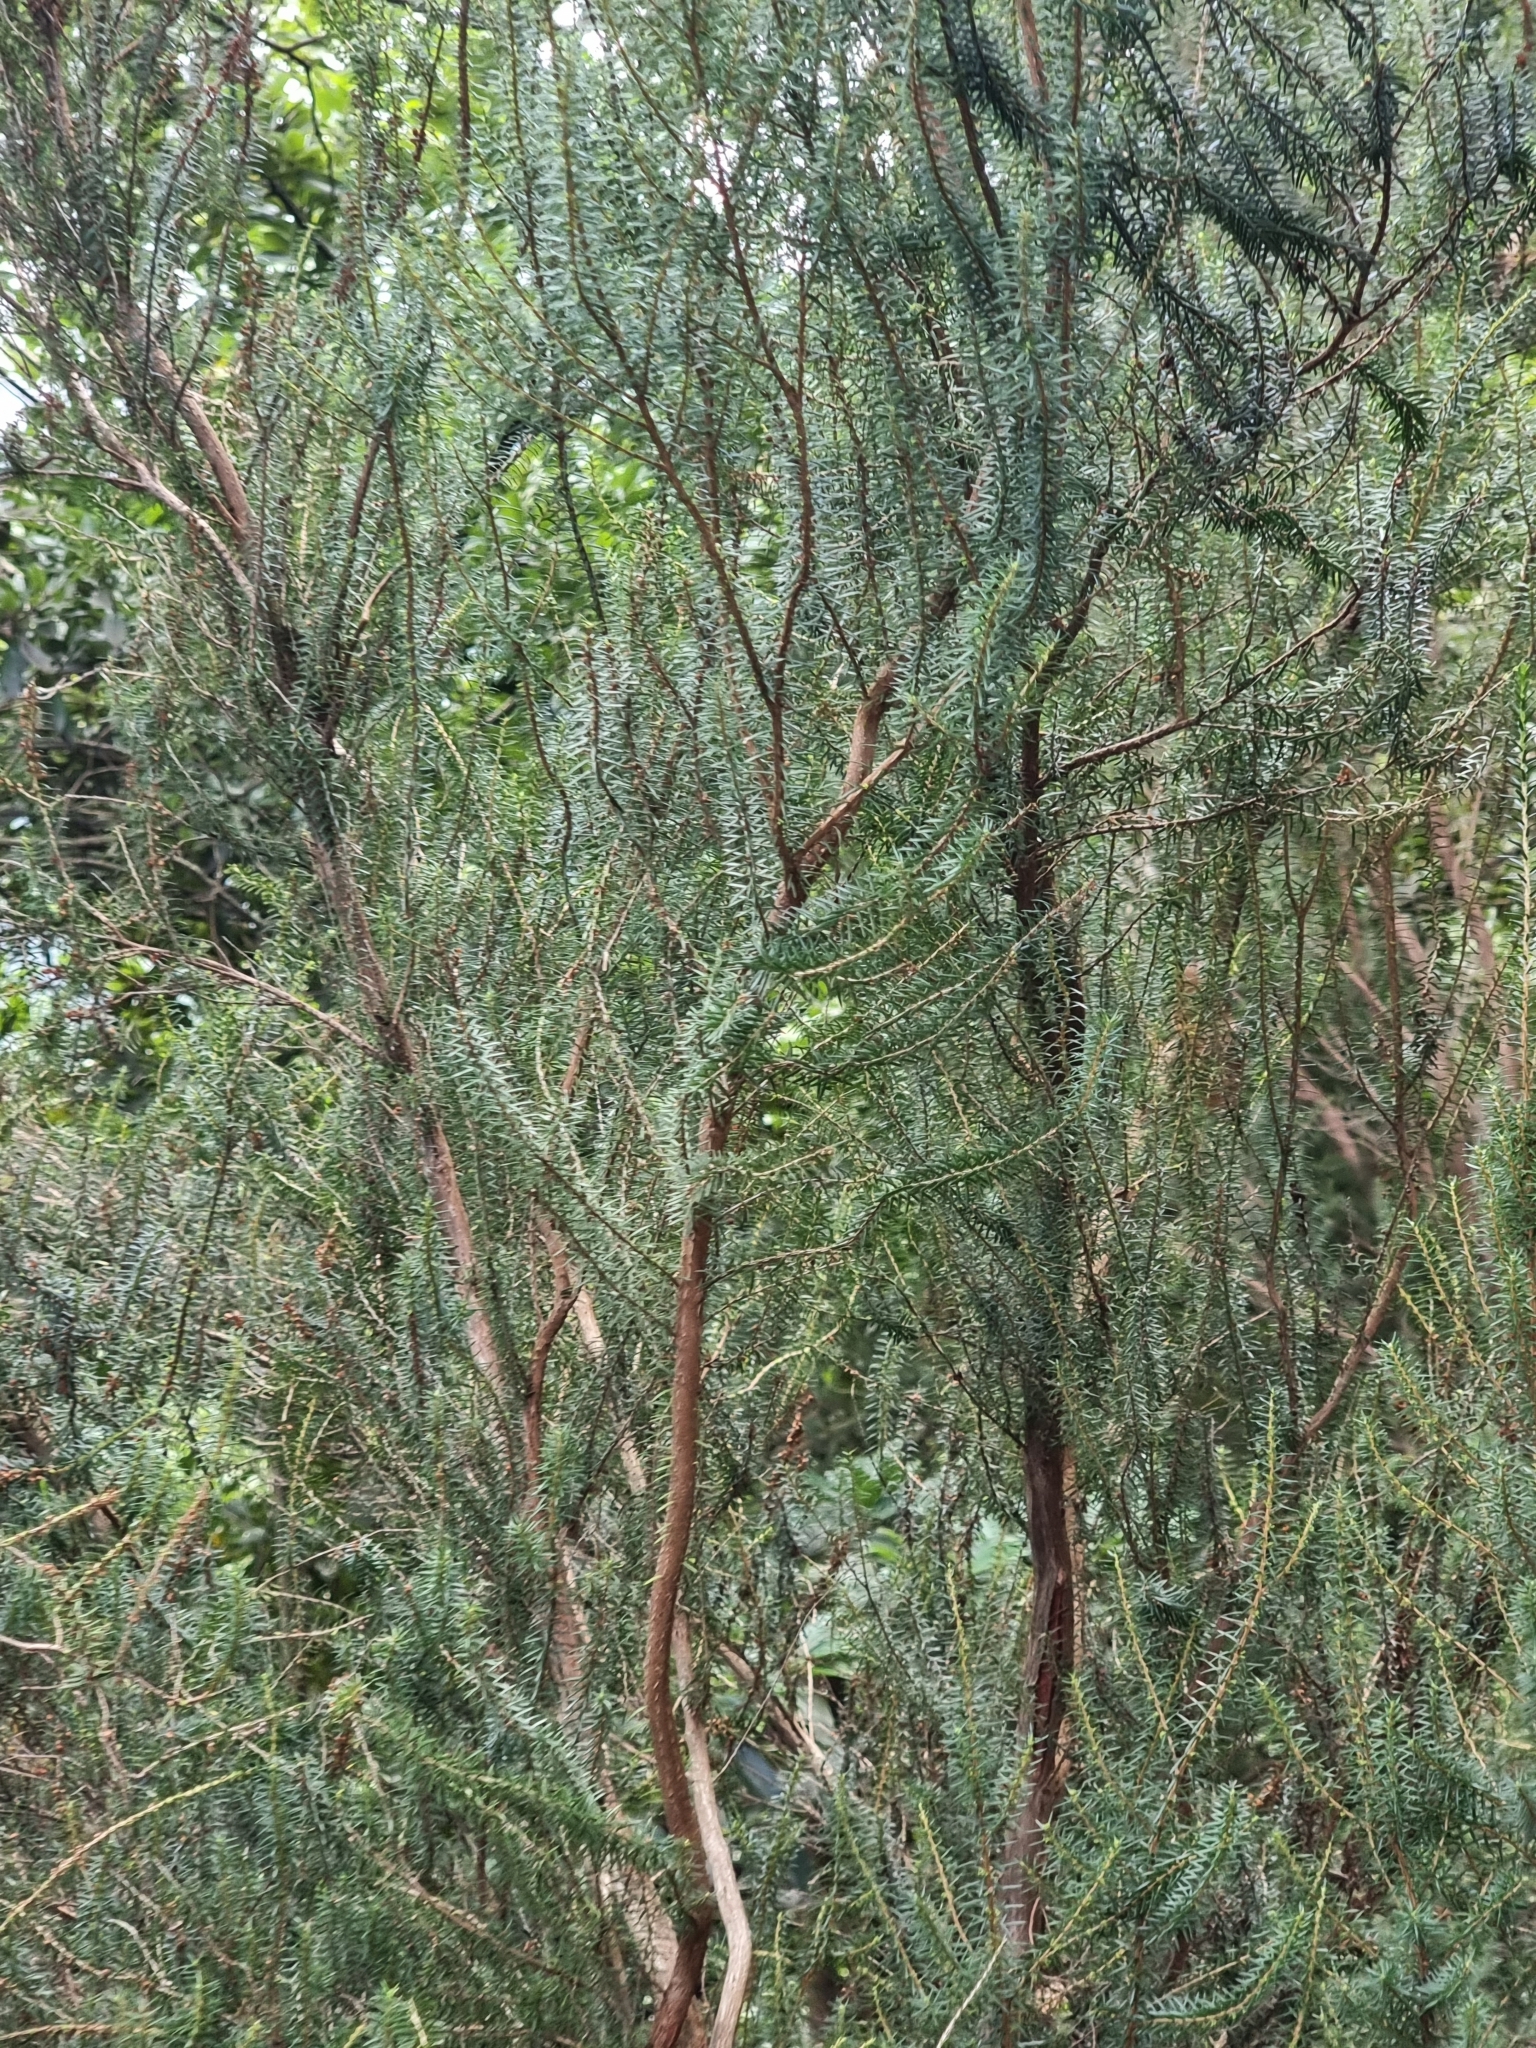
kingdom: Plantae
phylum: Tracheophyta
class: Magnoliopsida
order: Ericales
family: Ericaceae
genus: Erica
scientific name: Erica platycodon
